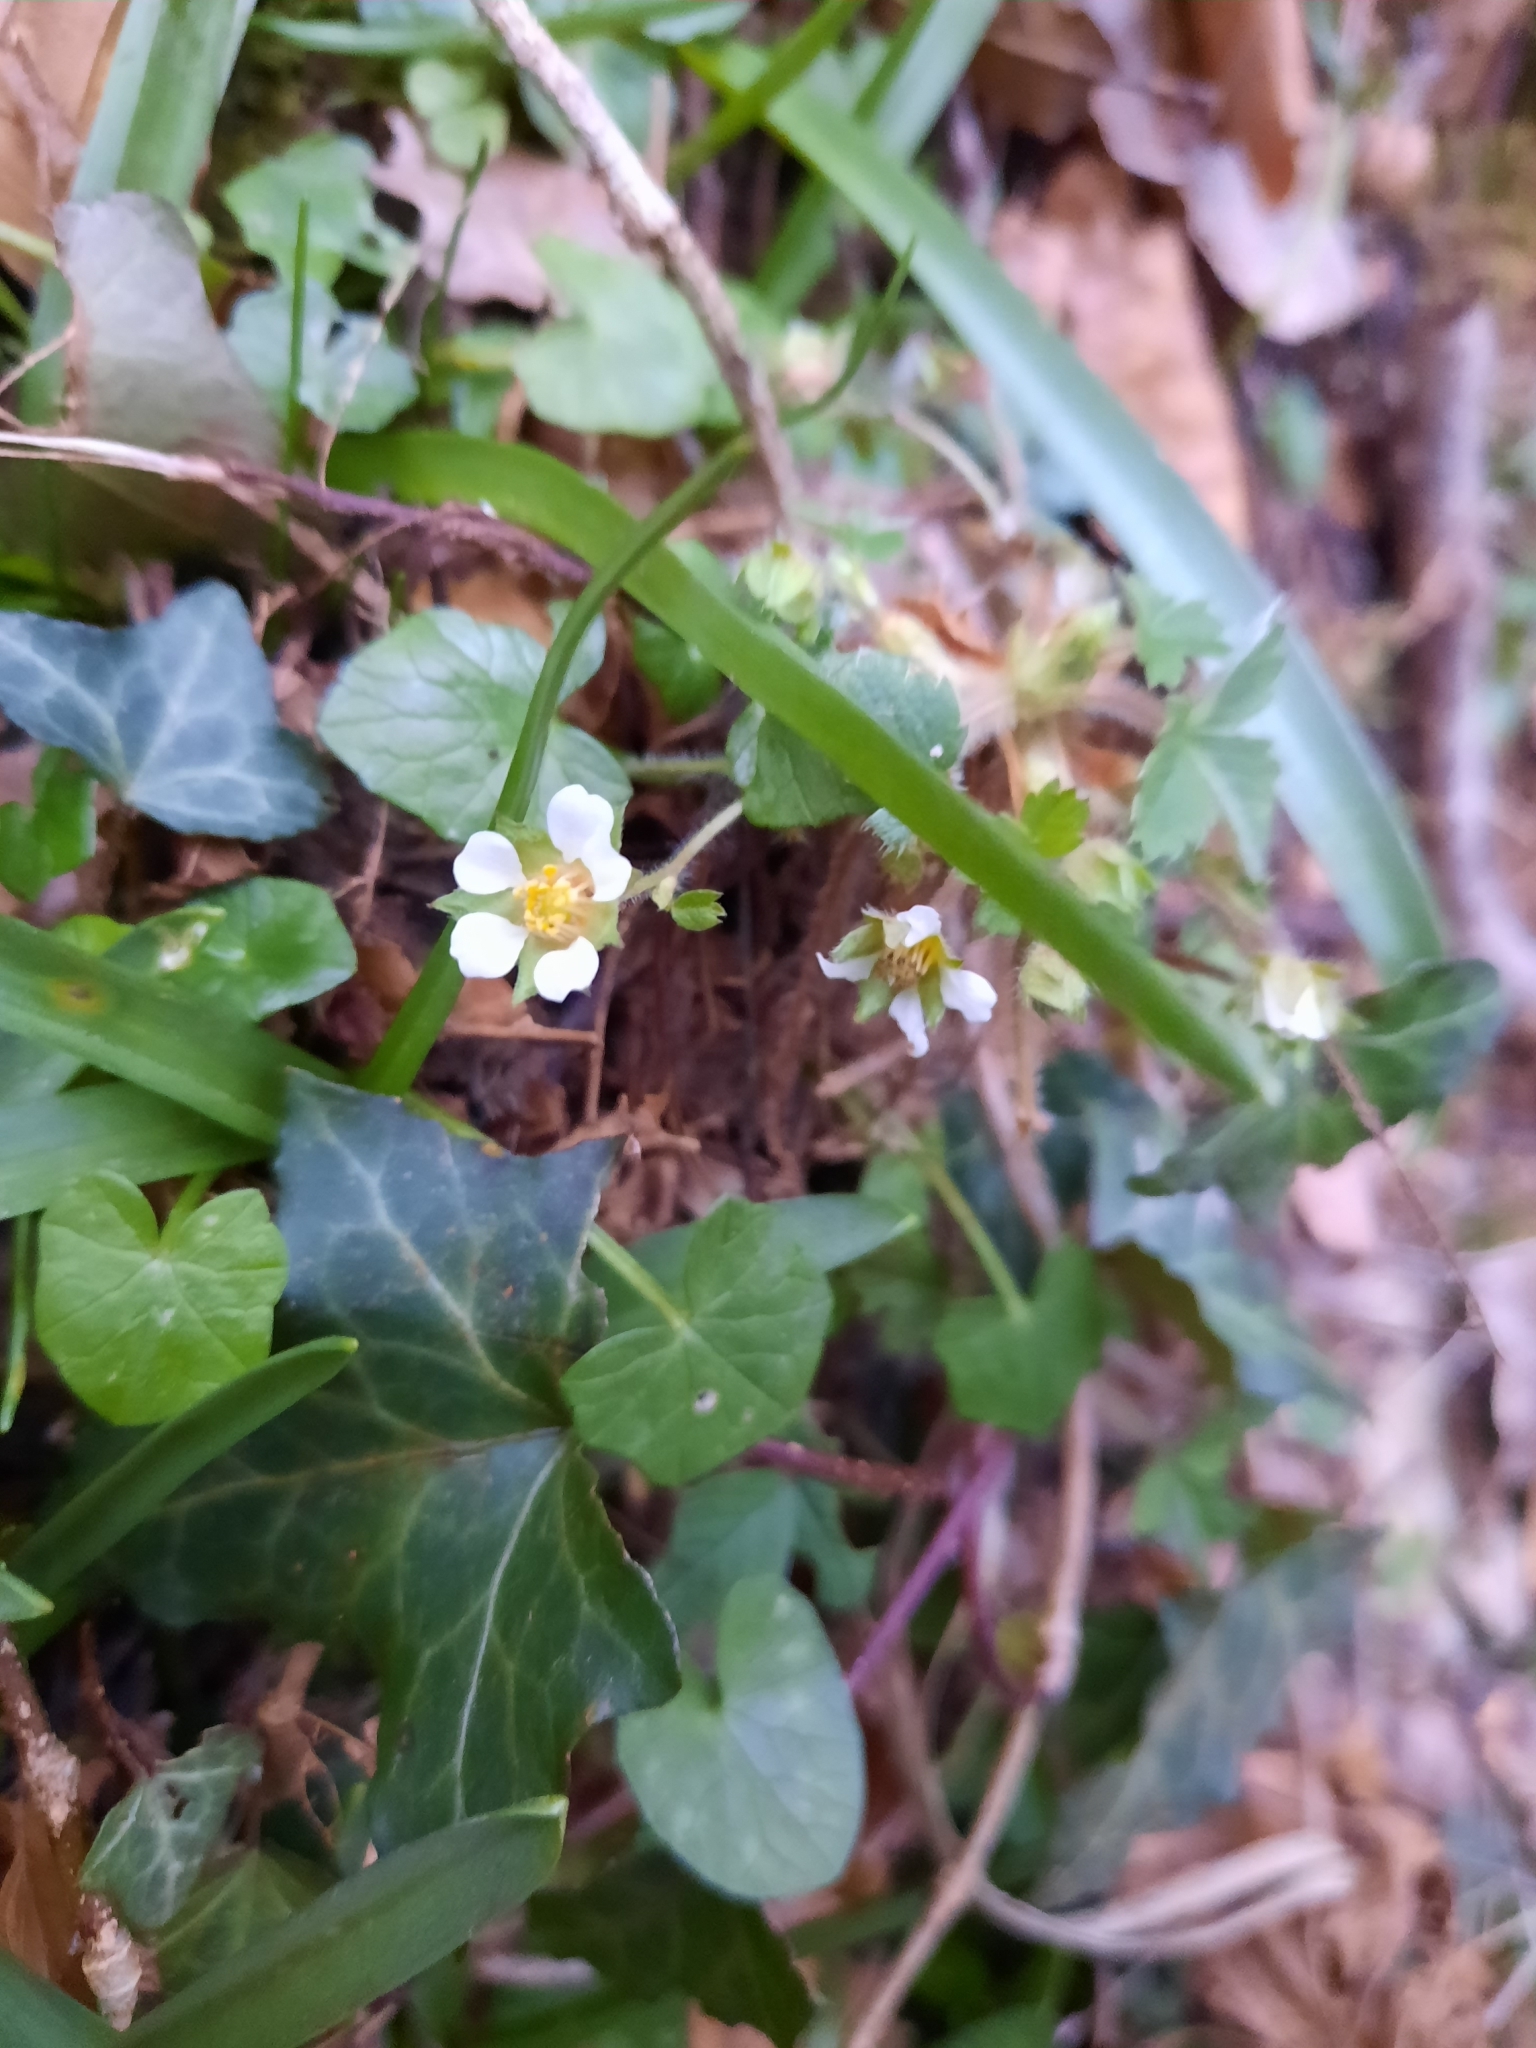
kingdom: Plantae
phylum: Tracheophyta
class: Magnoliopsida
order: Rosales
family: Rosaceae
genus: Potentilla
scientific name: Potentilla sterilis
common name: Barren strawberry
